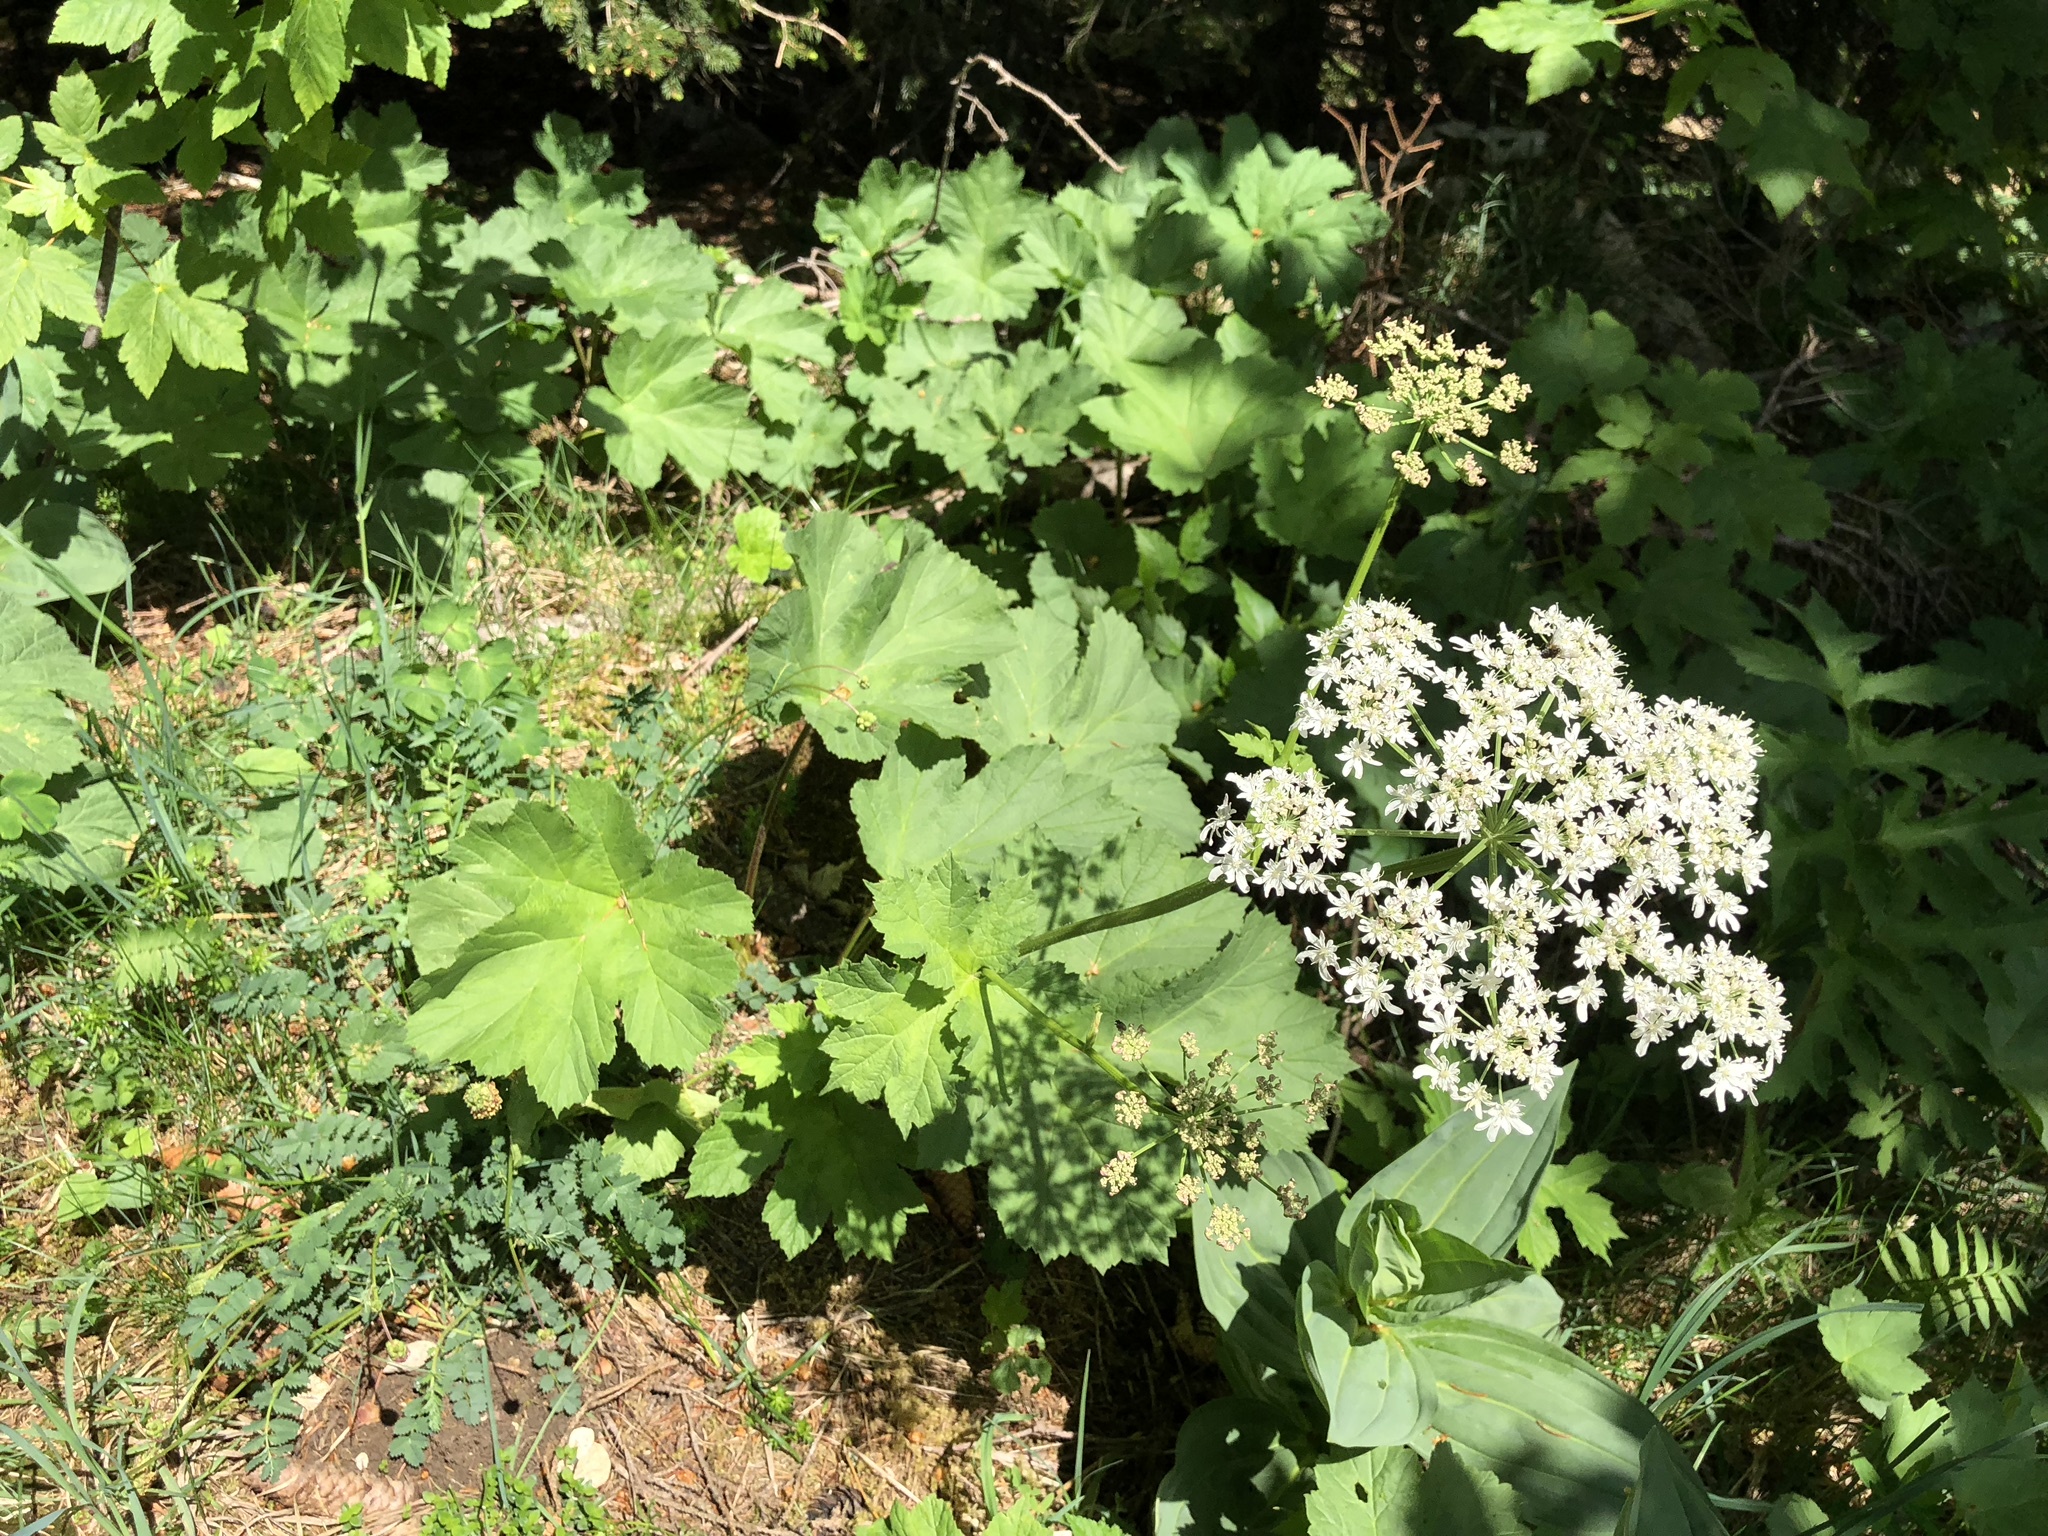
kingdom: Plantae
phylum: Tracheophyta
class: Magnoliopsida
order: Apiales
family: Apiaceae
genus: Heracleum
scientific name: Heracleum sphondylium
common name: Hogweed
